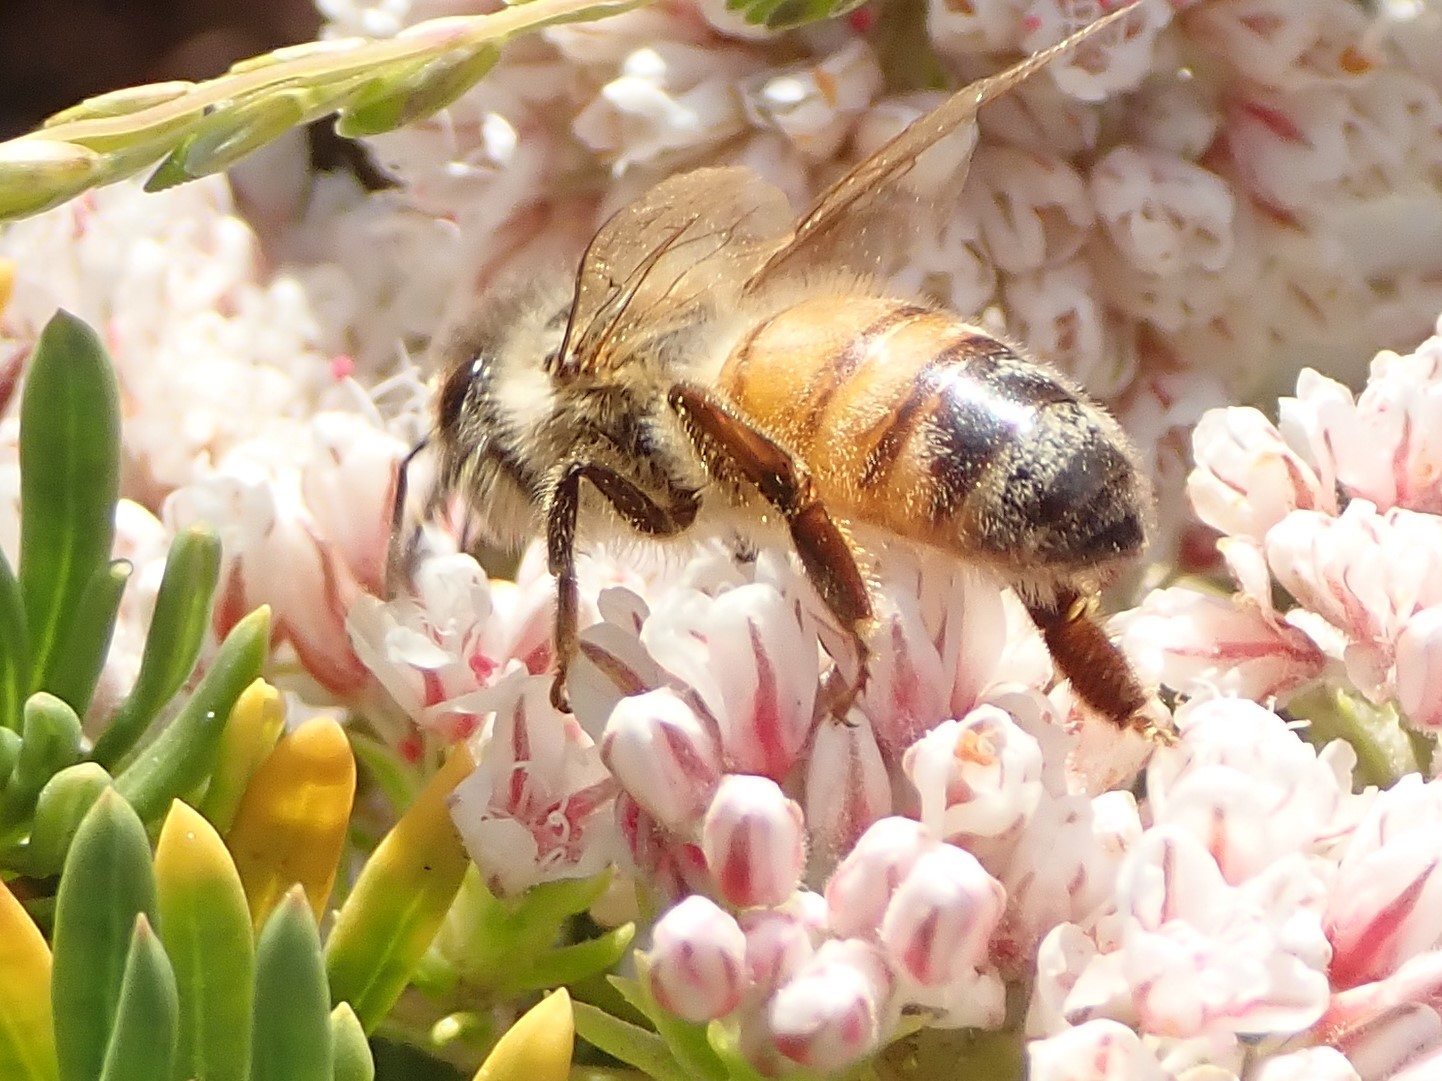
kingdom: Animalia
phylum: Arthropoda
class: Insecta
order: Hymenoptera
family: Apidae
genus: Apis
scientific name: Apis mellifera
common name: Honey bee
